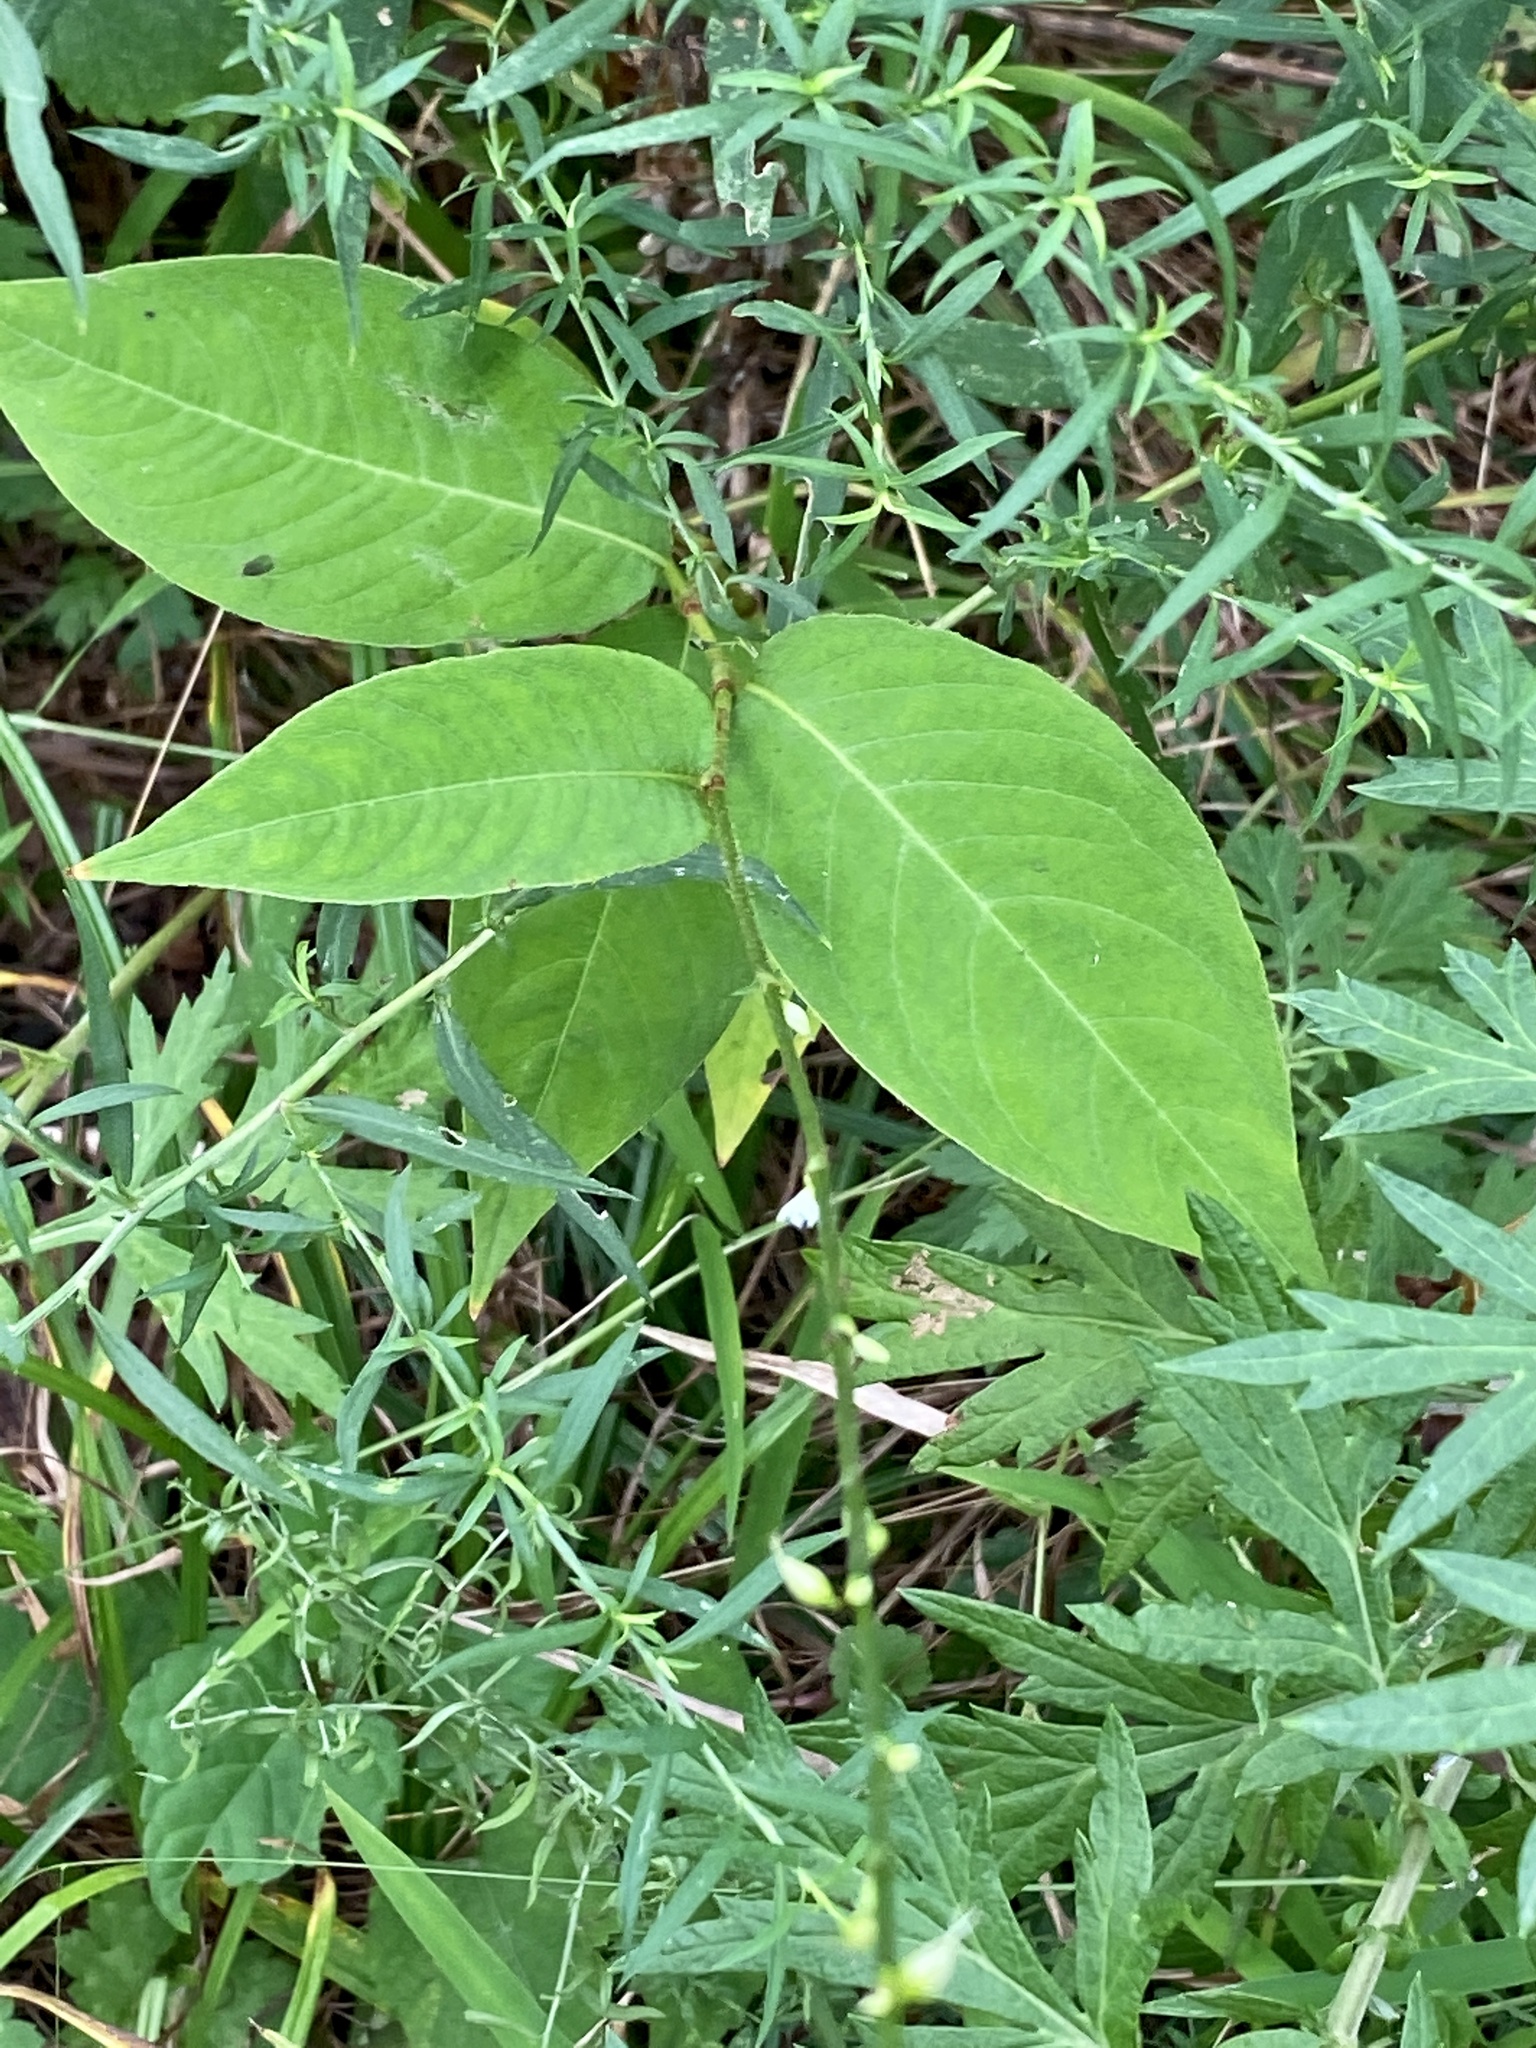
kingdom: Plantae
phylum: Tracheophyta
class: Magnoliopsida
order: Caryophyllales
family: Polygonaceae
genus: Persicaria
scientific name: Persicaria virginiana
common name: Jumpseed
